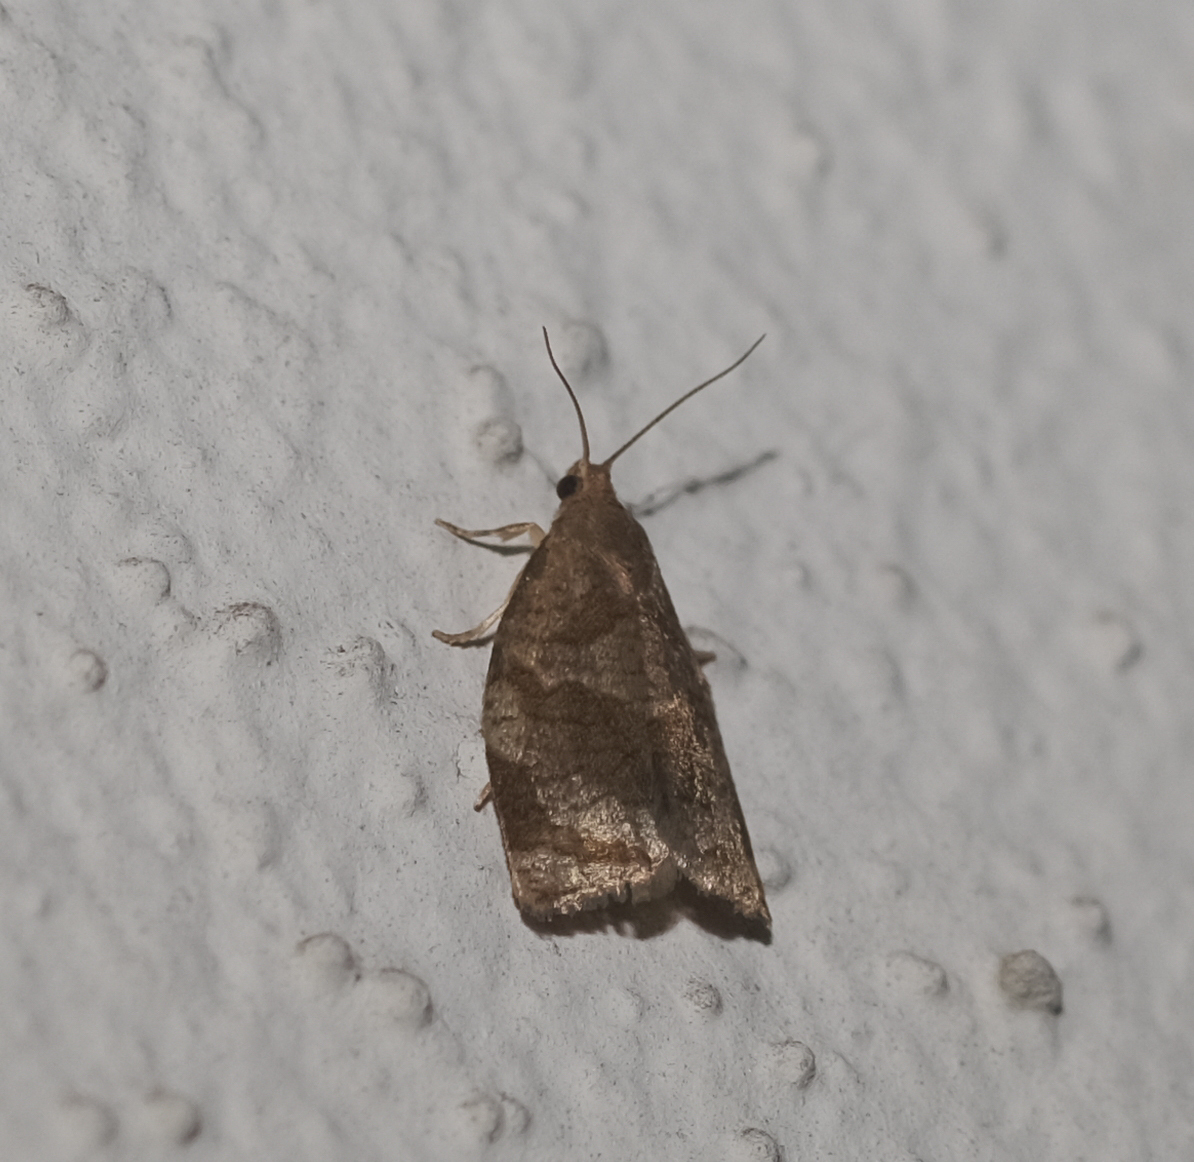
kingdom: Animalia
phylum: Arthropoda
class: Insecta
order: Lepidoptera
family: Tortricidae
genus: Archips
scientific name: Archips rosana
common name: Rose tortrix
